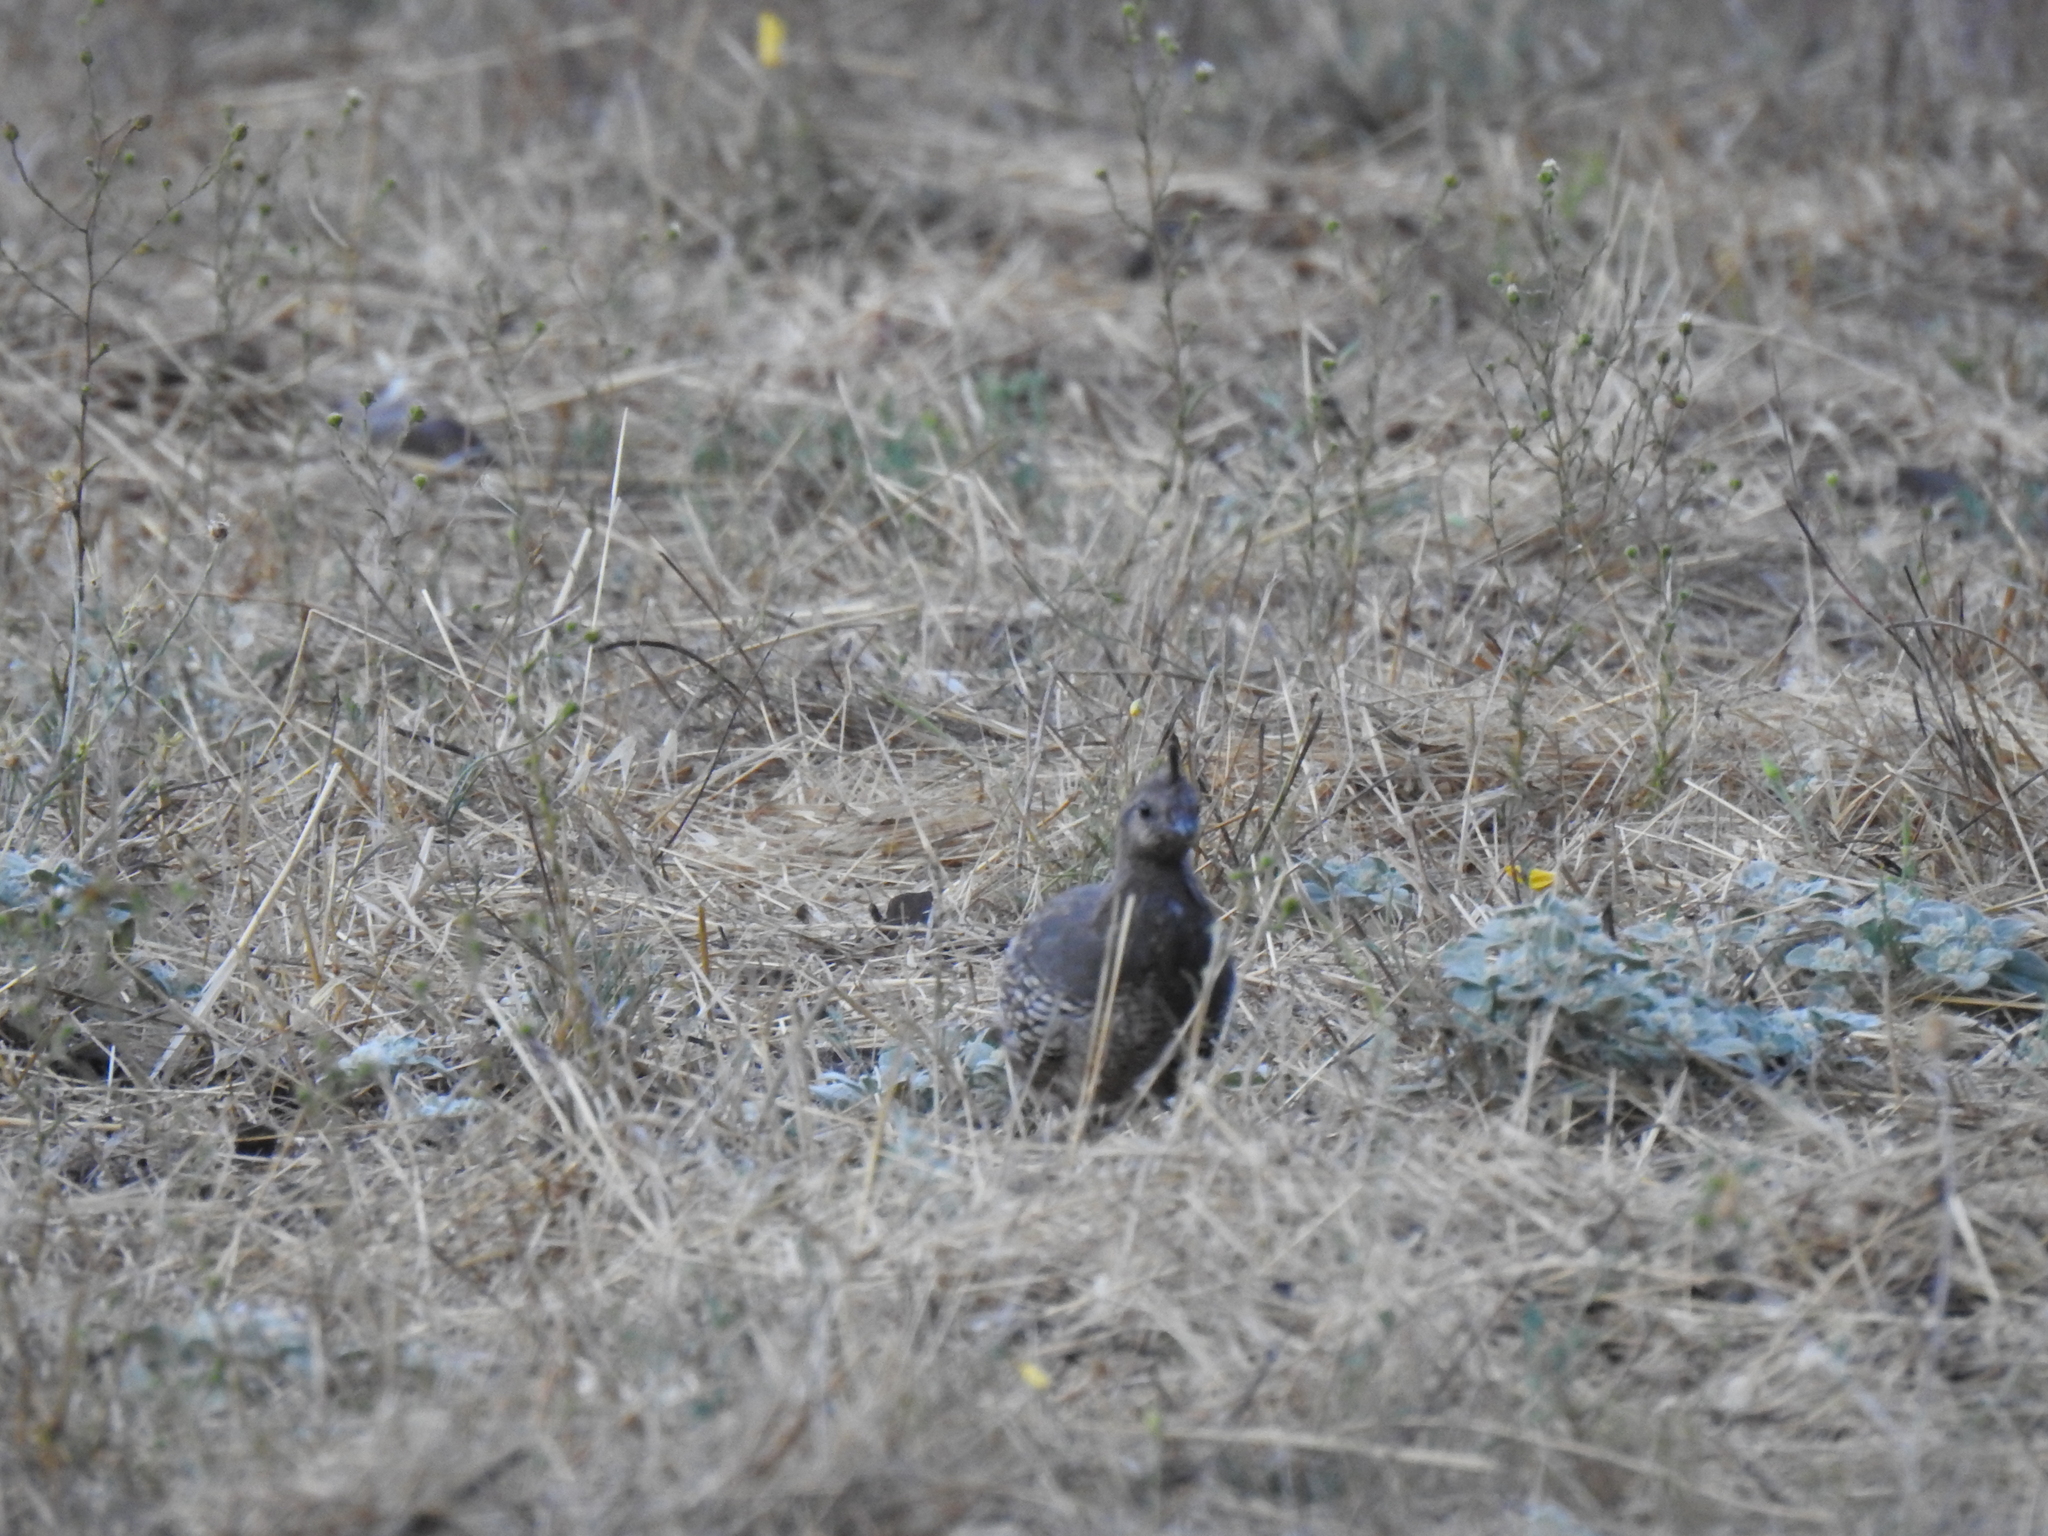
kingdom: Animalia
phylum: Chordata
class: Aves
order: Galliformes
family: Odontophoridae
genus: Callipepla
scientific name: Callipepla californica
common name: California quail
